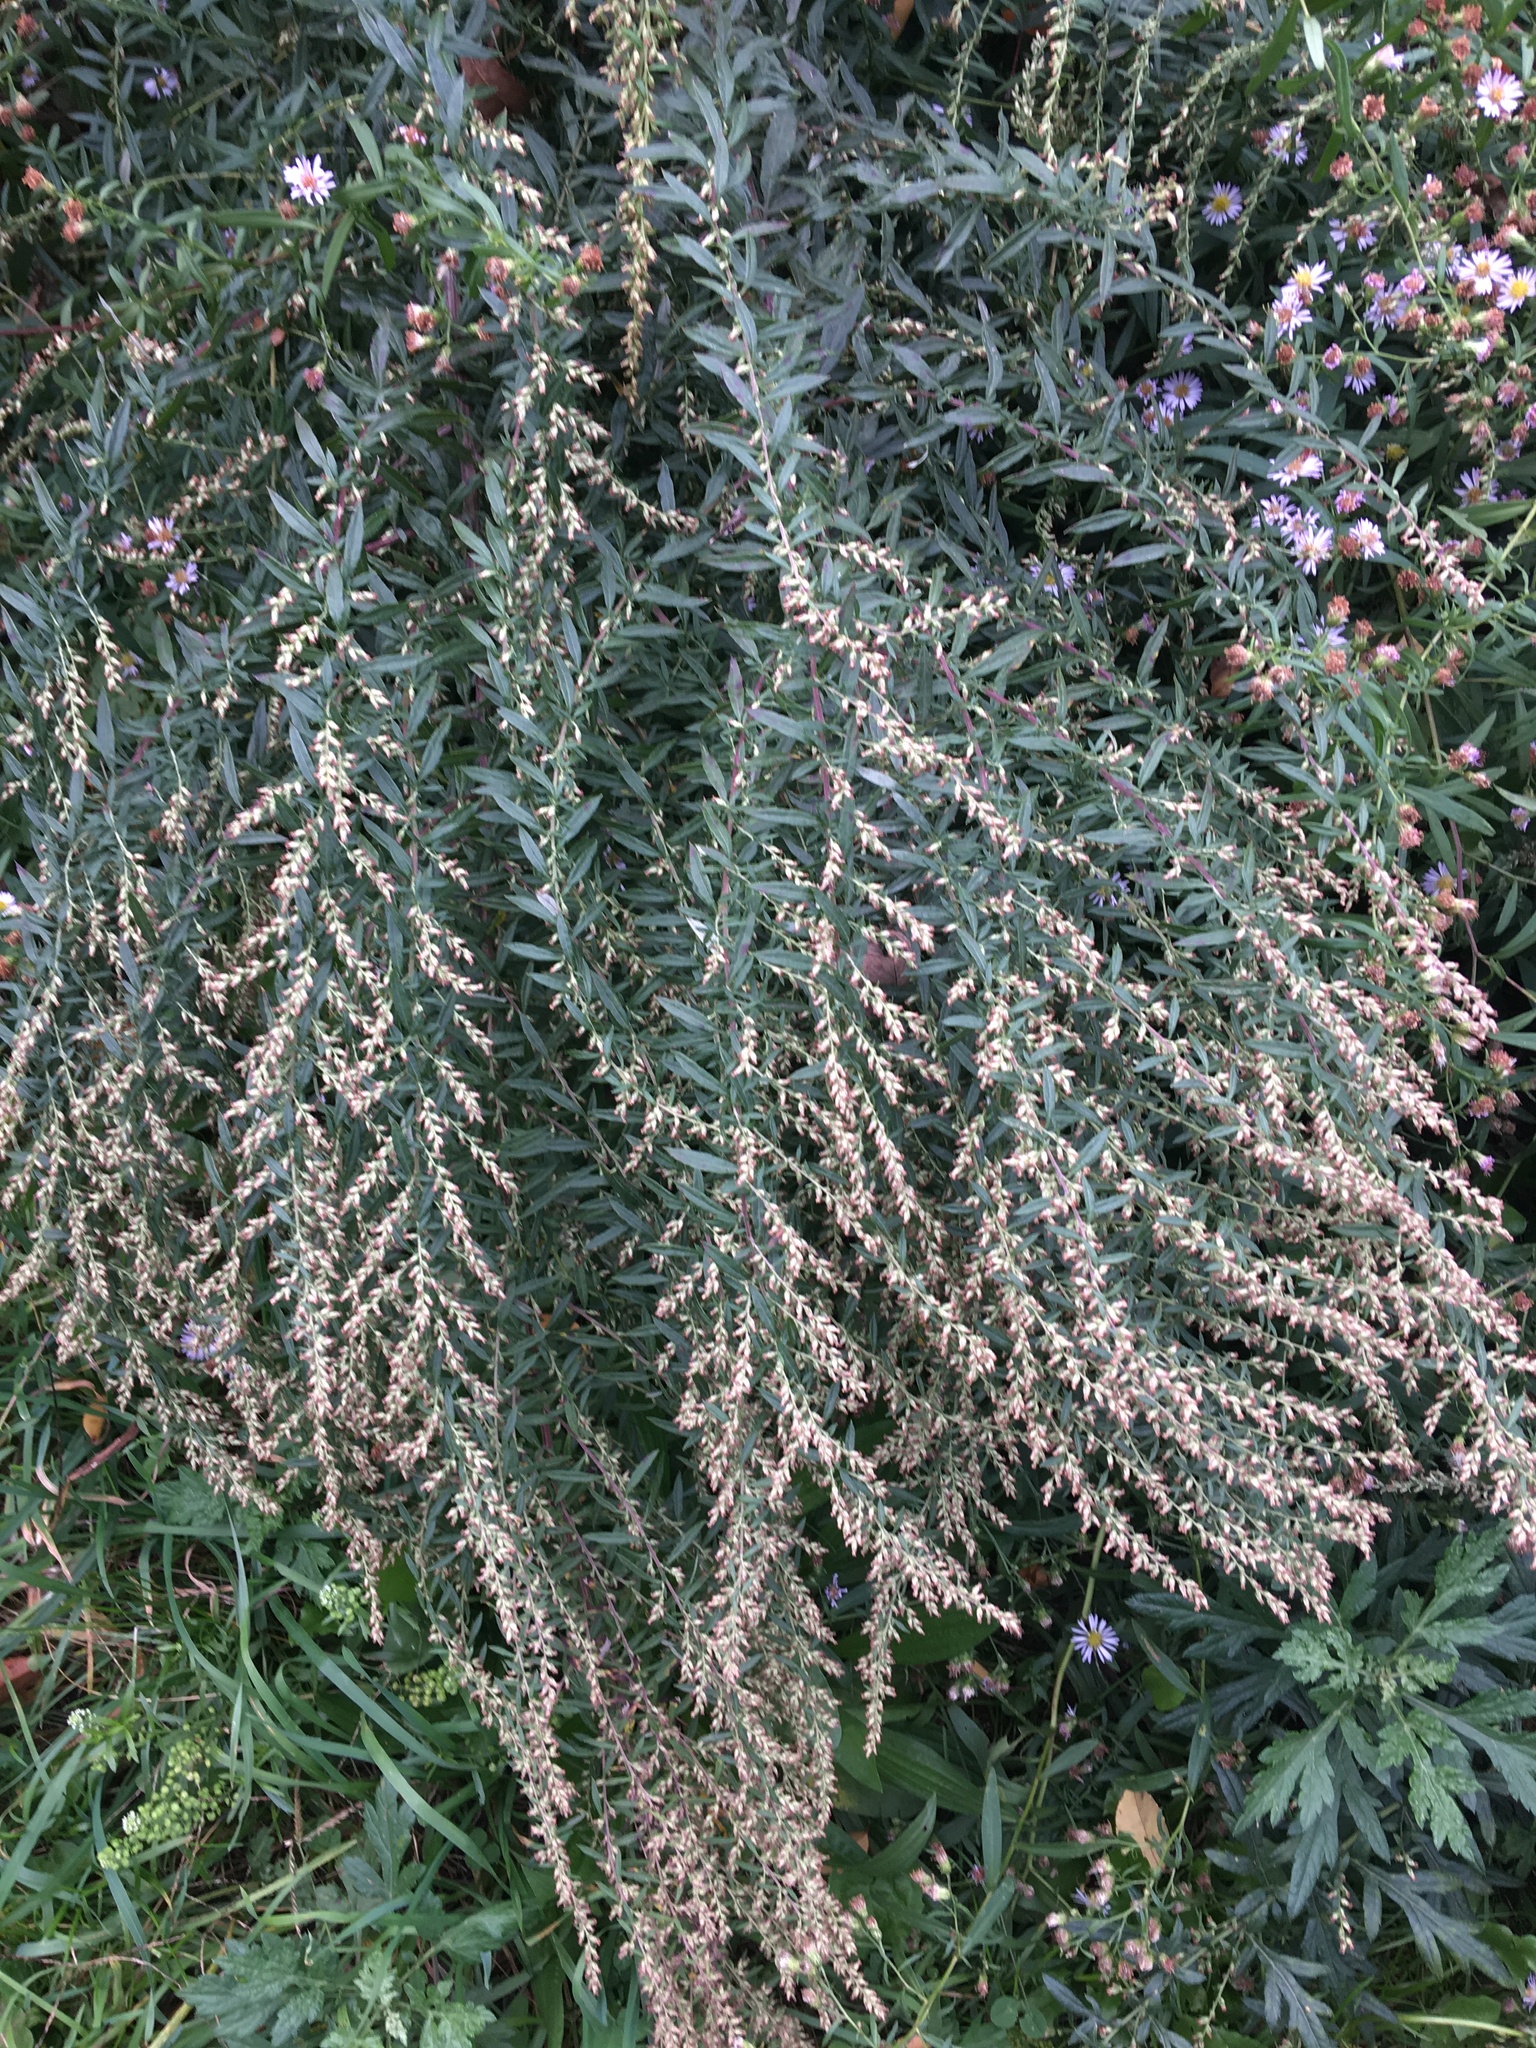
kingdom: Plantae
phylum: Tracheophyta
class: Magnoliopsida
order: Asterales
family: Asteraceae
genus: Artemisia
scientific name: Artemisia vulgaris
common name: Mugwort
